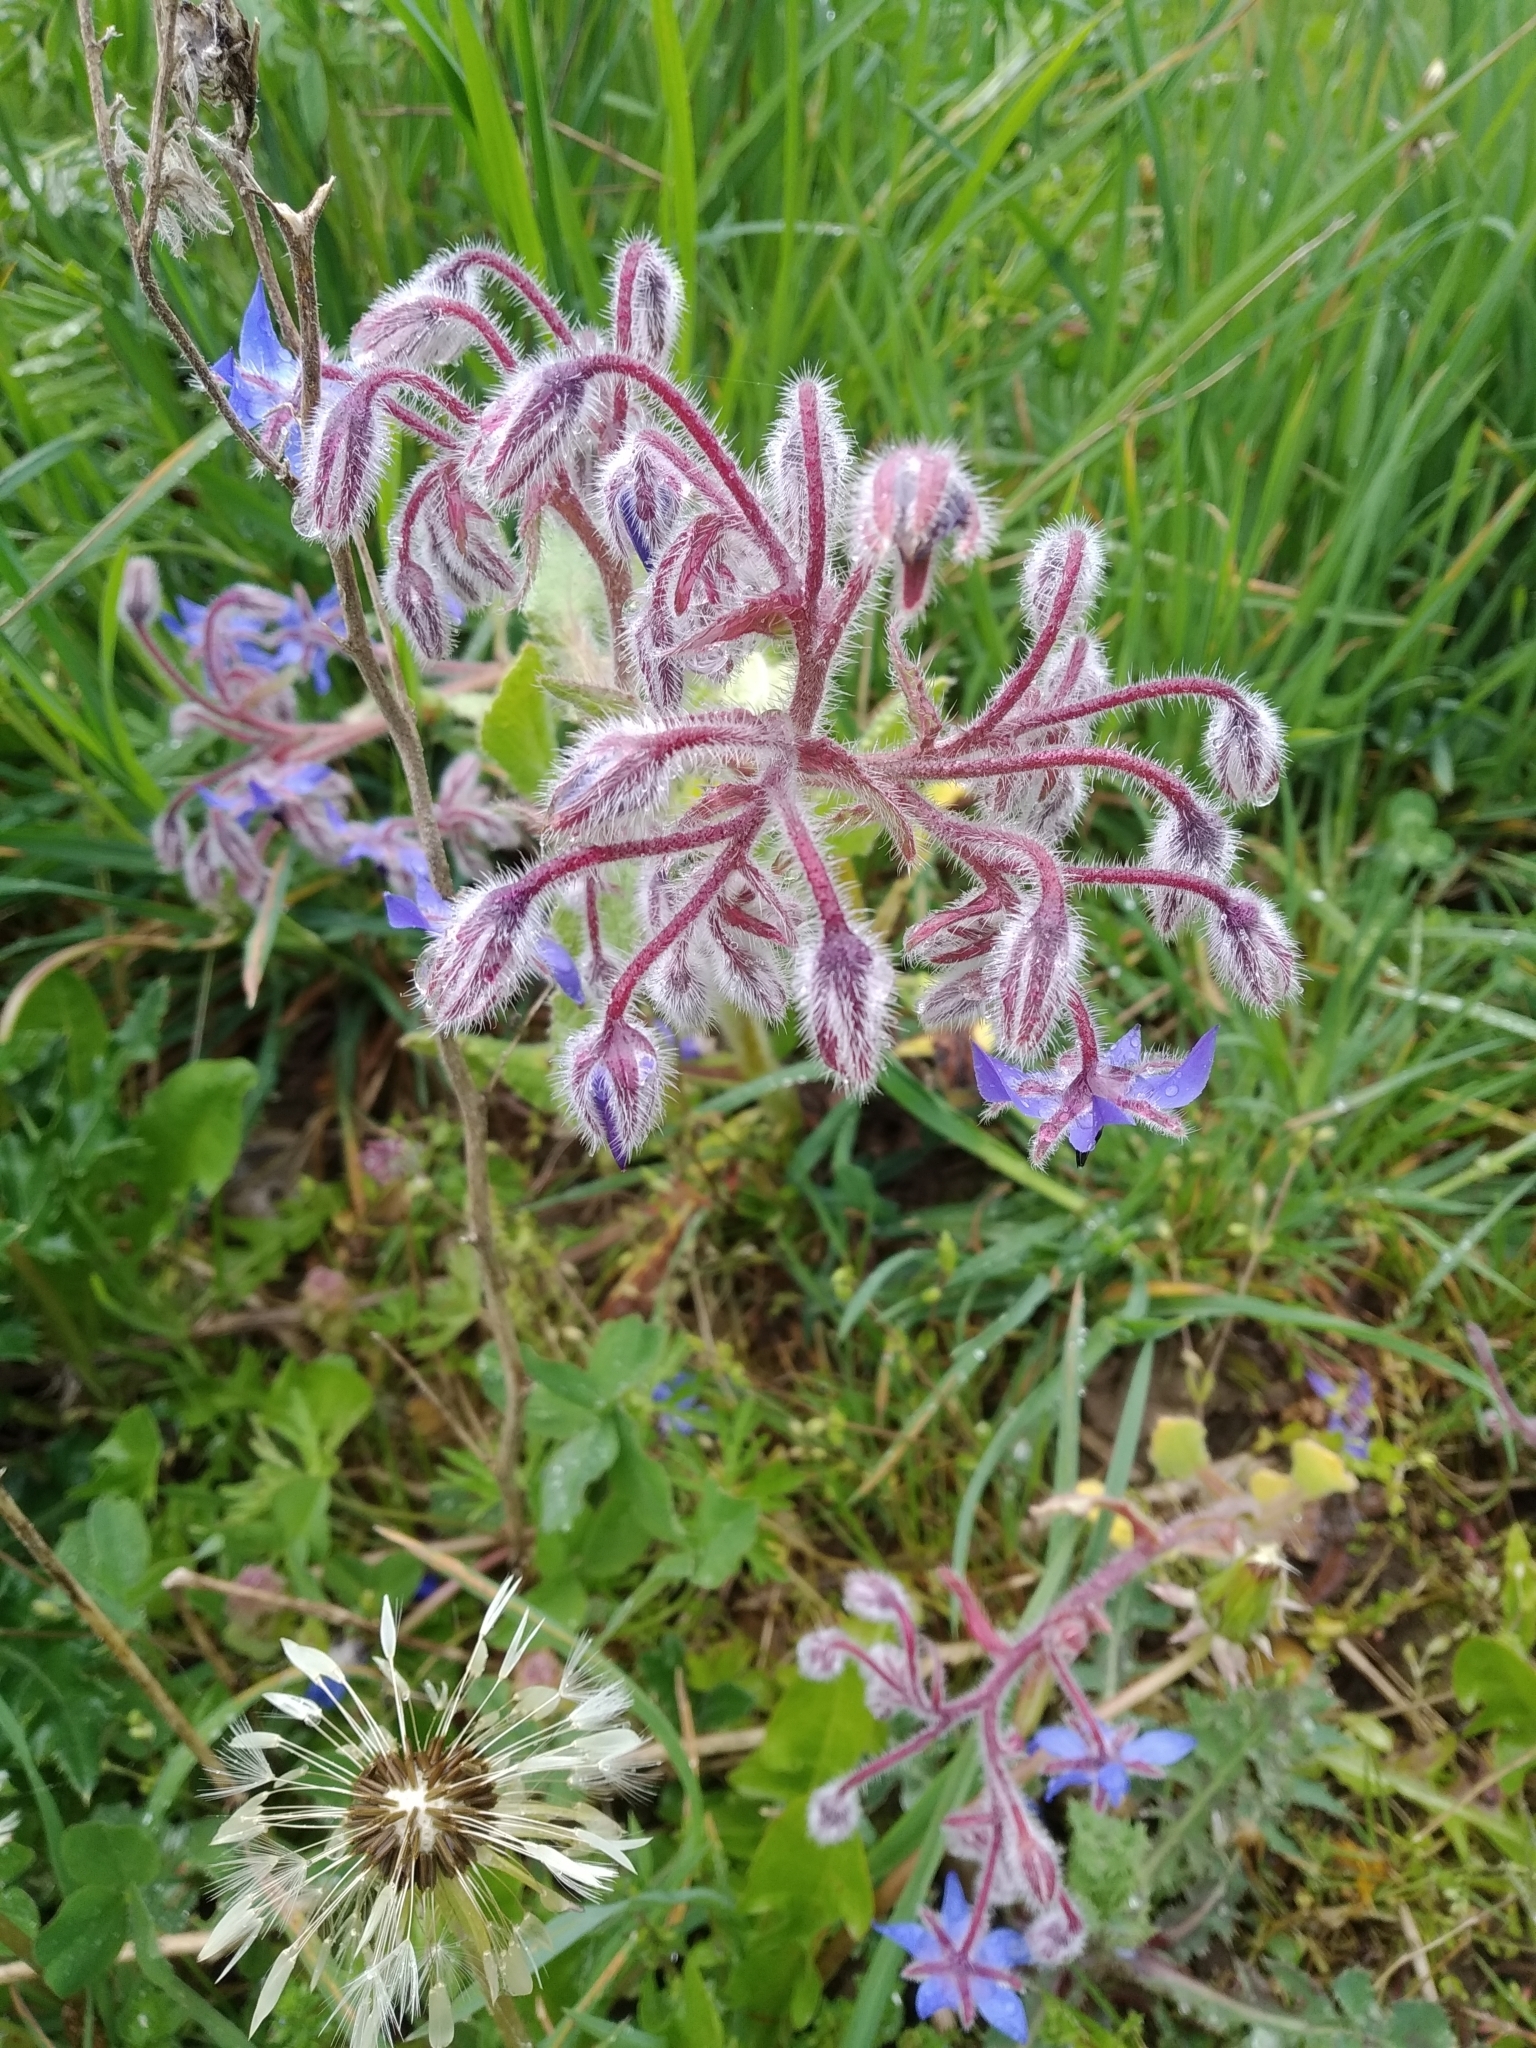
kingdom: Plantae
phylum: Tracheophyta
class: Magnoliopsida
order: Boraginales
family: Boraginaceae
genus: Borago
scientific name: Borago officinalis
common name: Borage
